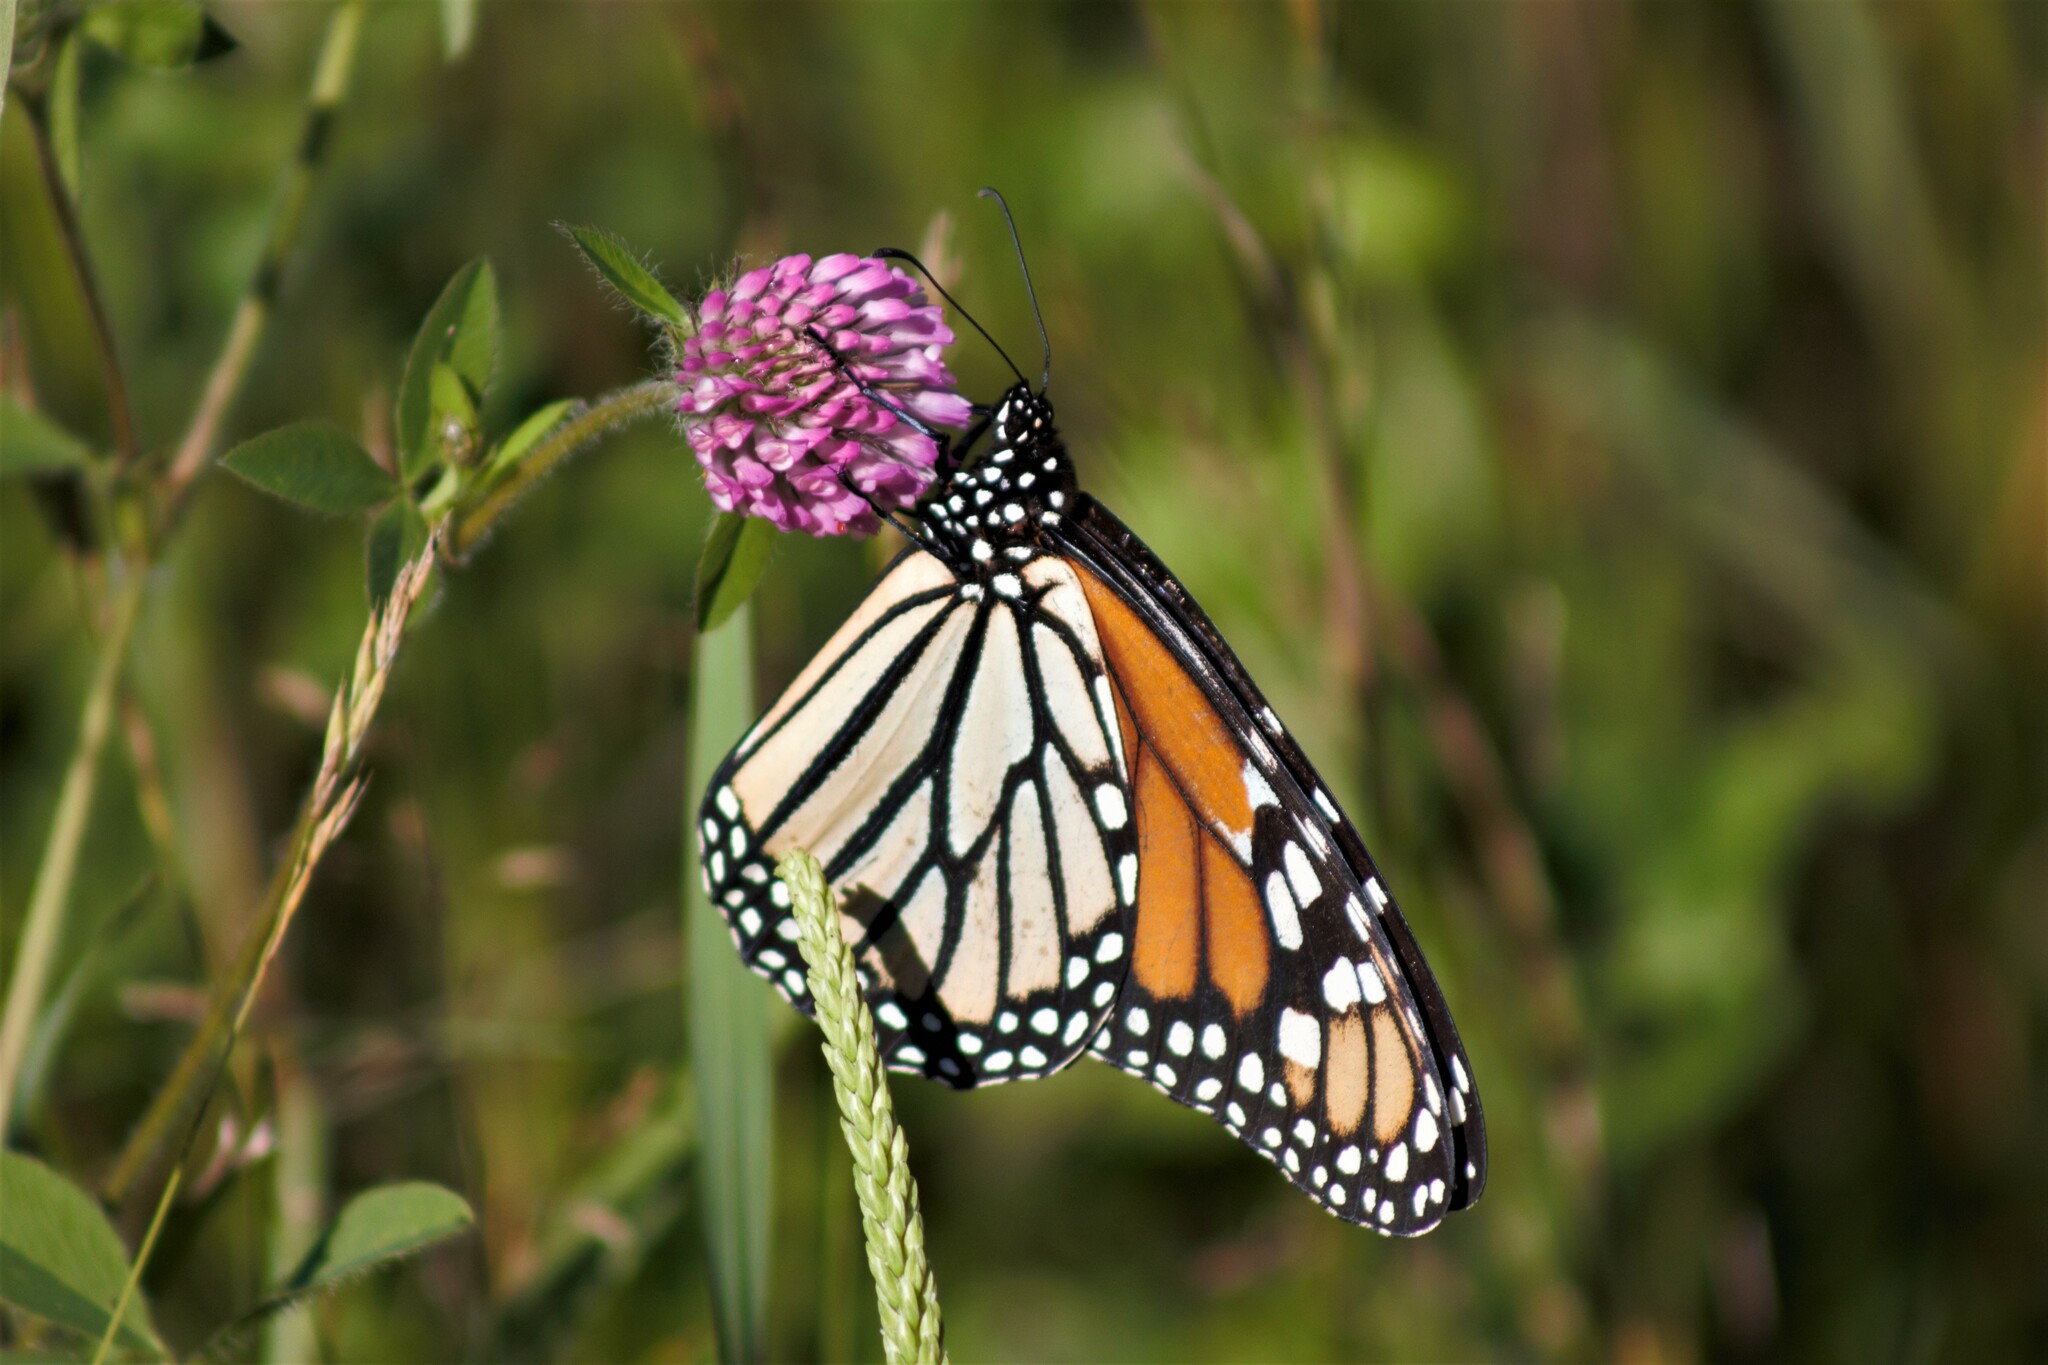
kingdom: Animalia
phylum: Arthropoda
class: Insecta
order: Lepidoptera
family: Nymphalidae
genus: Danaus
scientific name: Danaus plexippus
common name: Monarch
